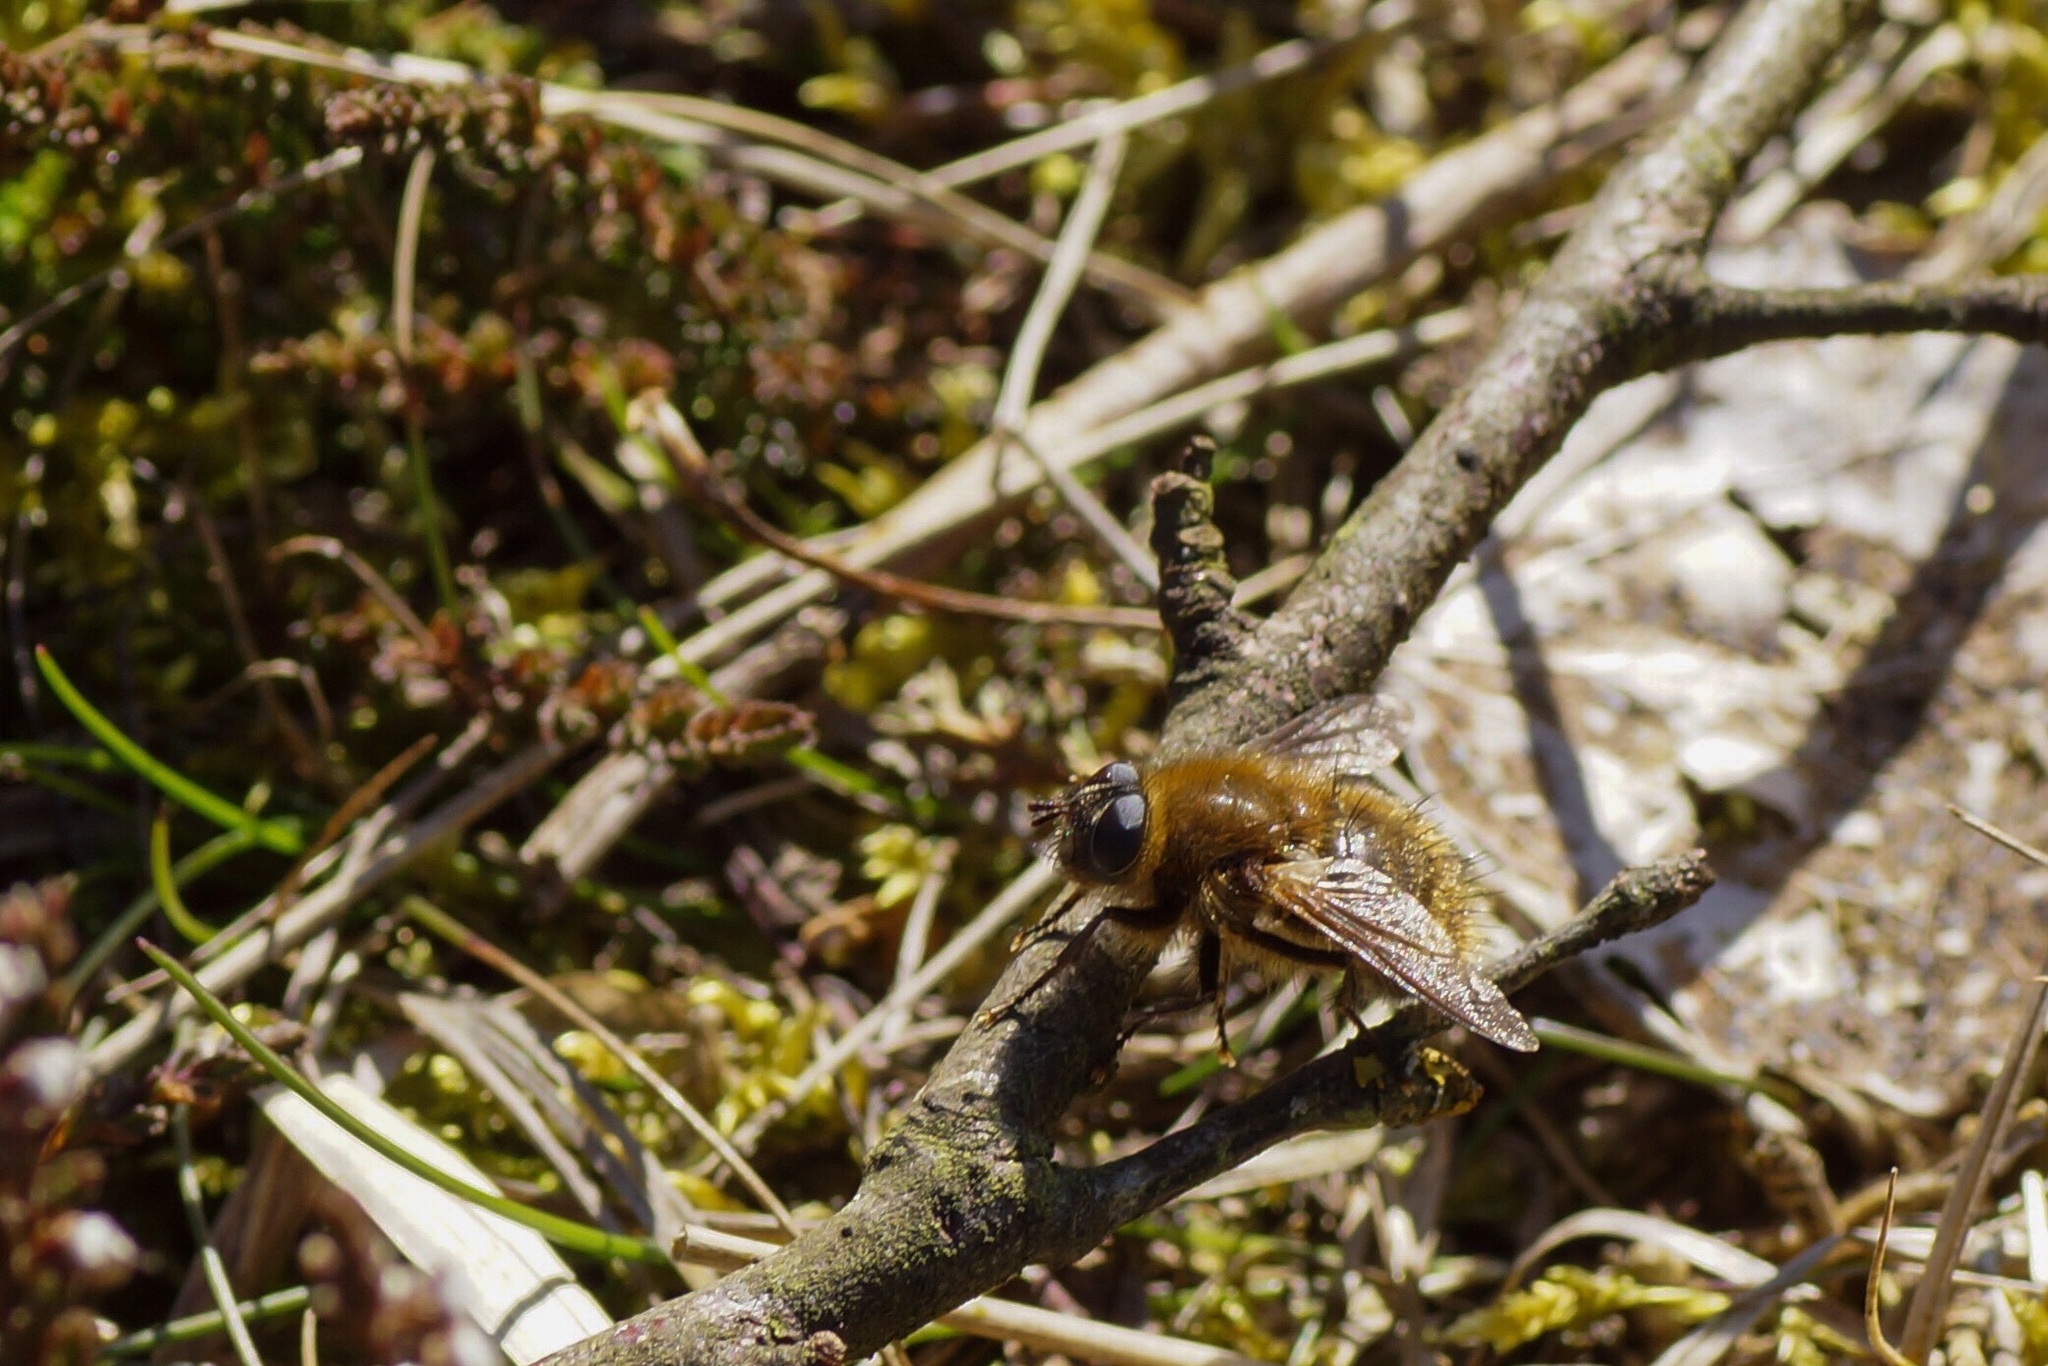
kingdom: Animalia
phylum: Arthropoda
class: Insecta
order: Diptera
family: Tachinidae
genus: Tachina
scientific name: Tachina ursina
